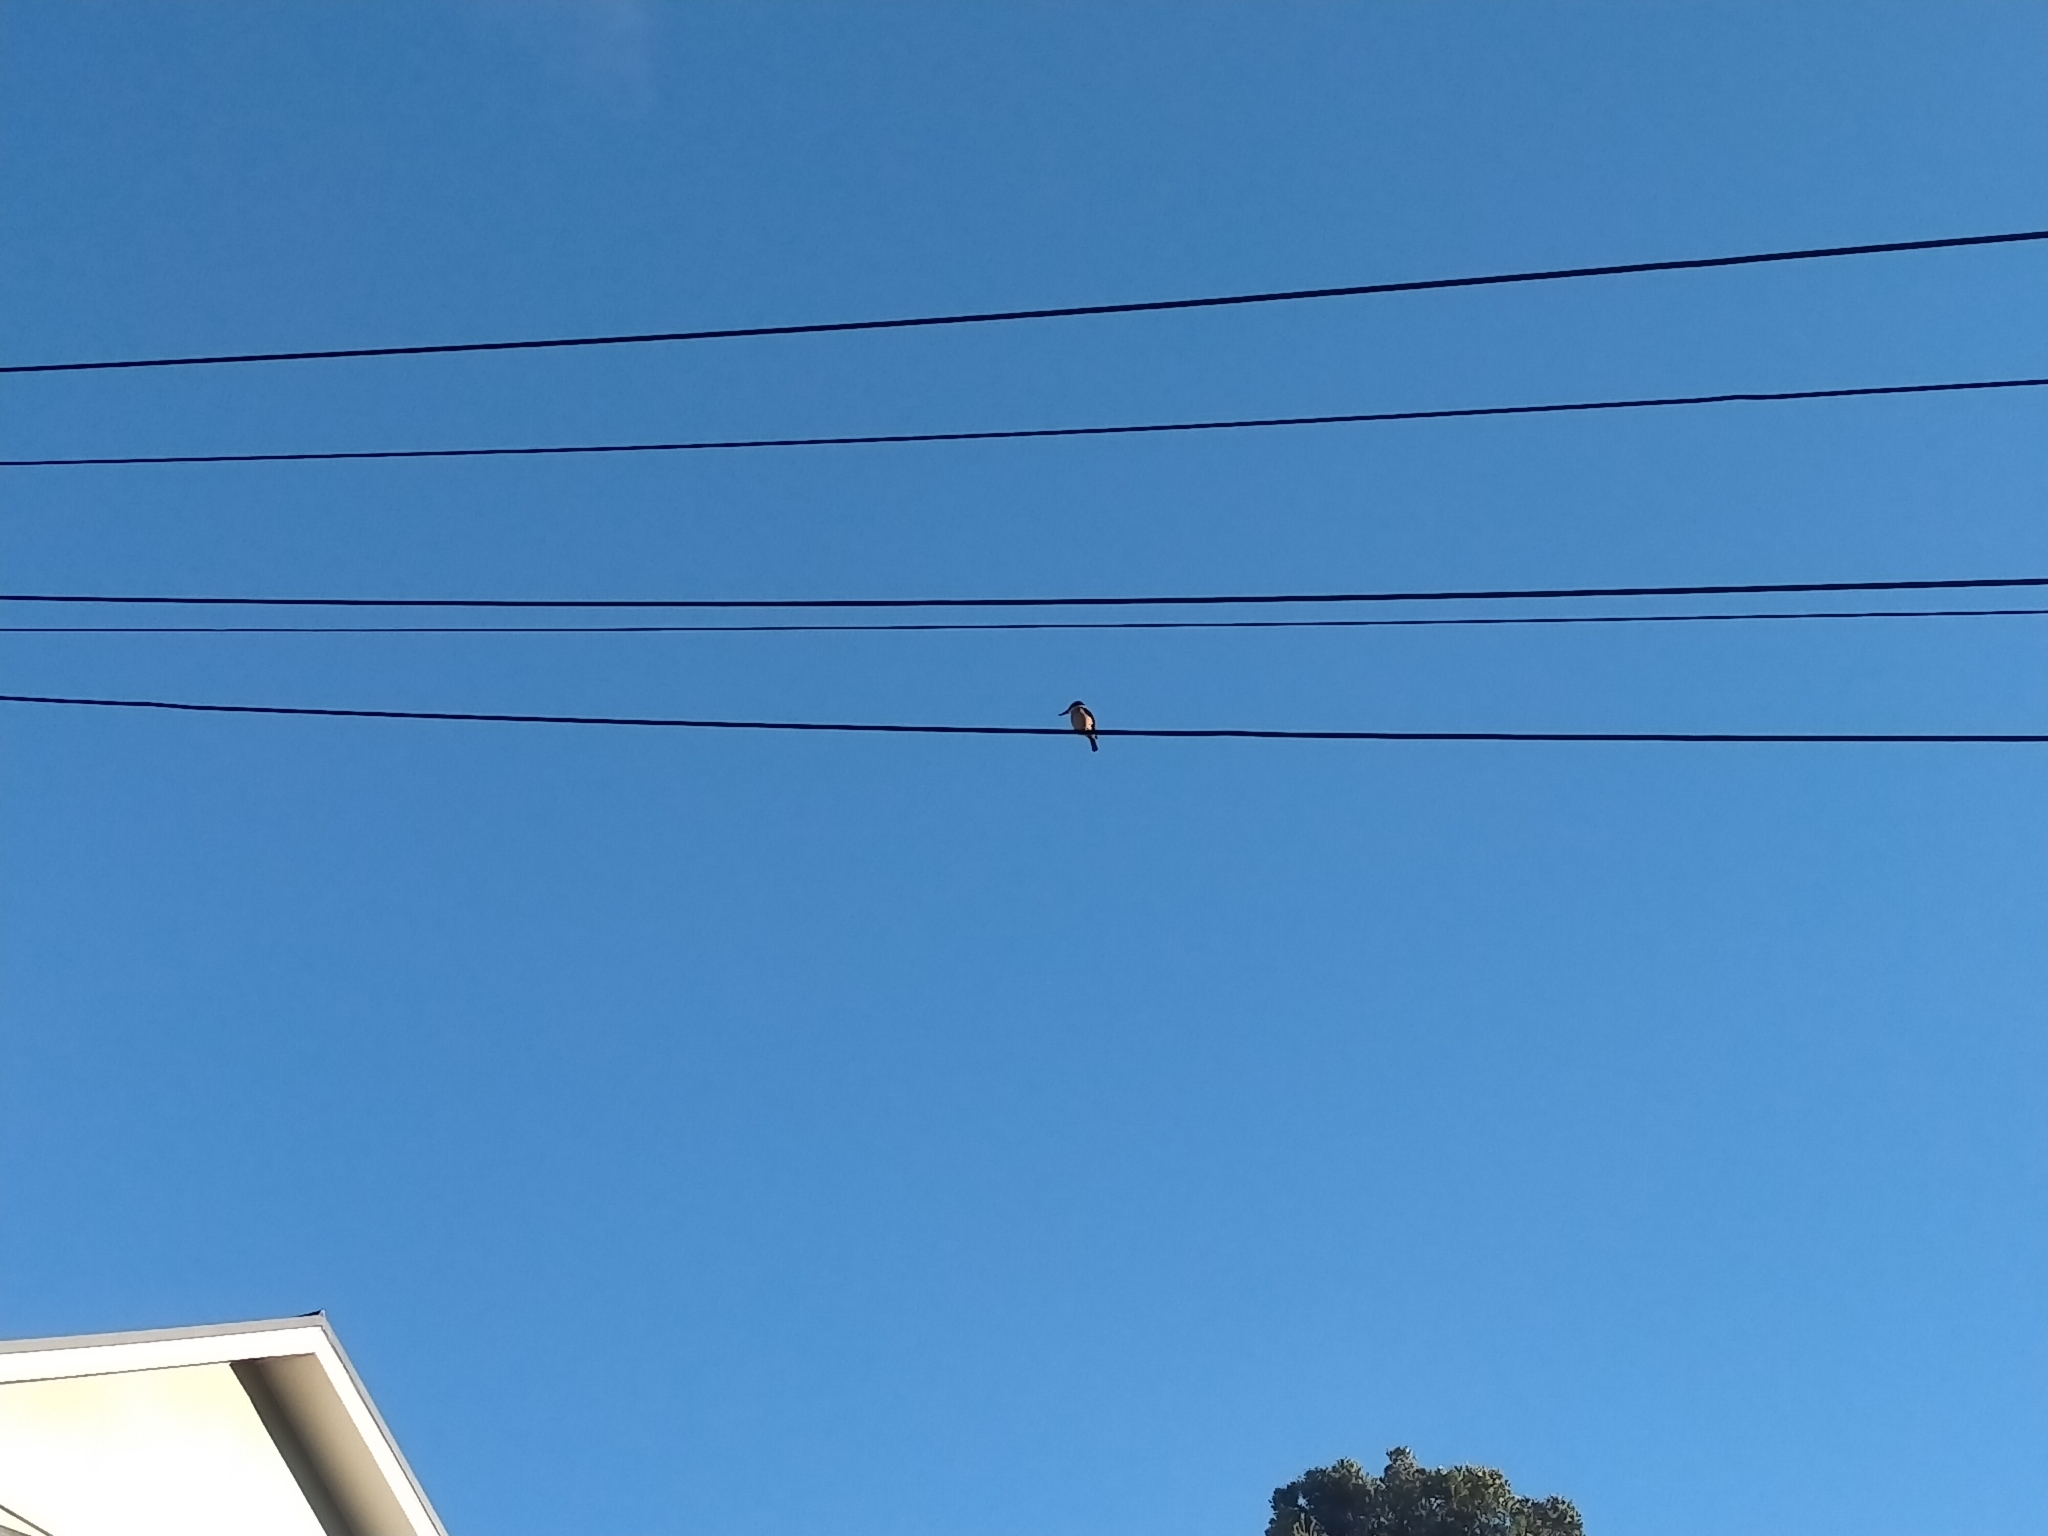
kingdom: Animalia
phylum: Chordata
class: Aves
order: Coraciiformes
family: Alcedinidae
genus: Todiramphus
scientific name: Todiramphus sanctus
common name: Sacred kingfisher
